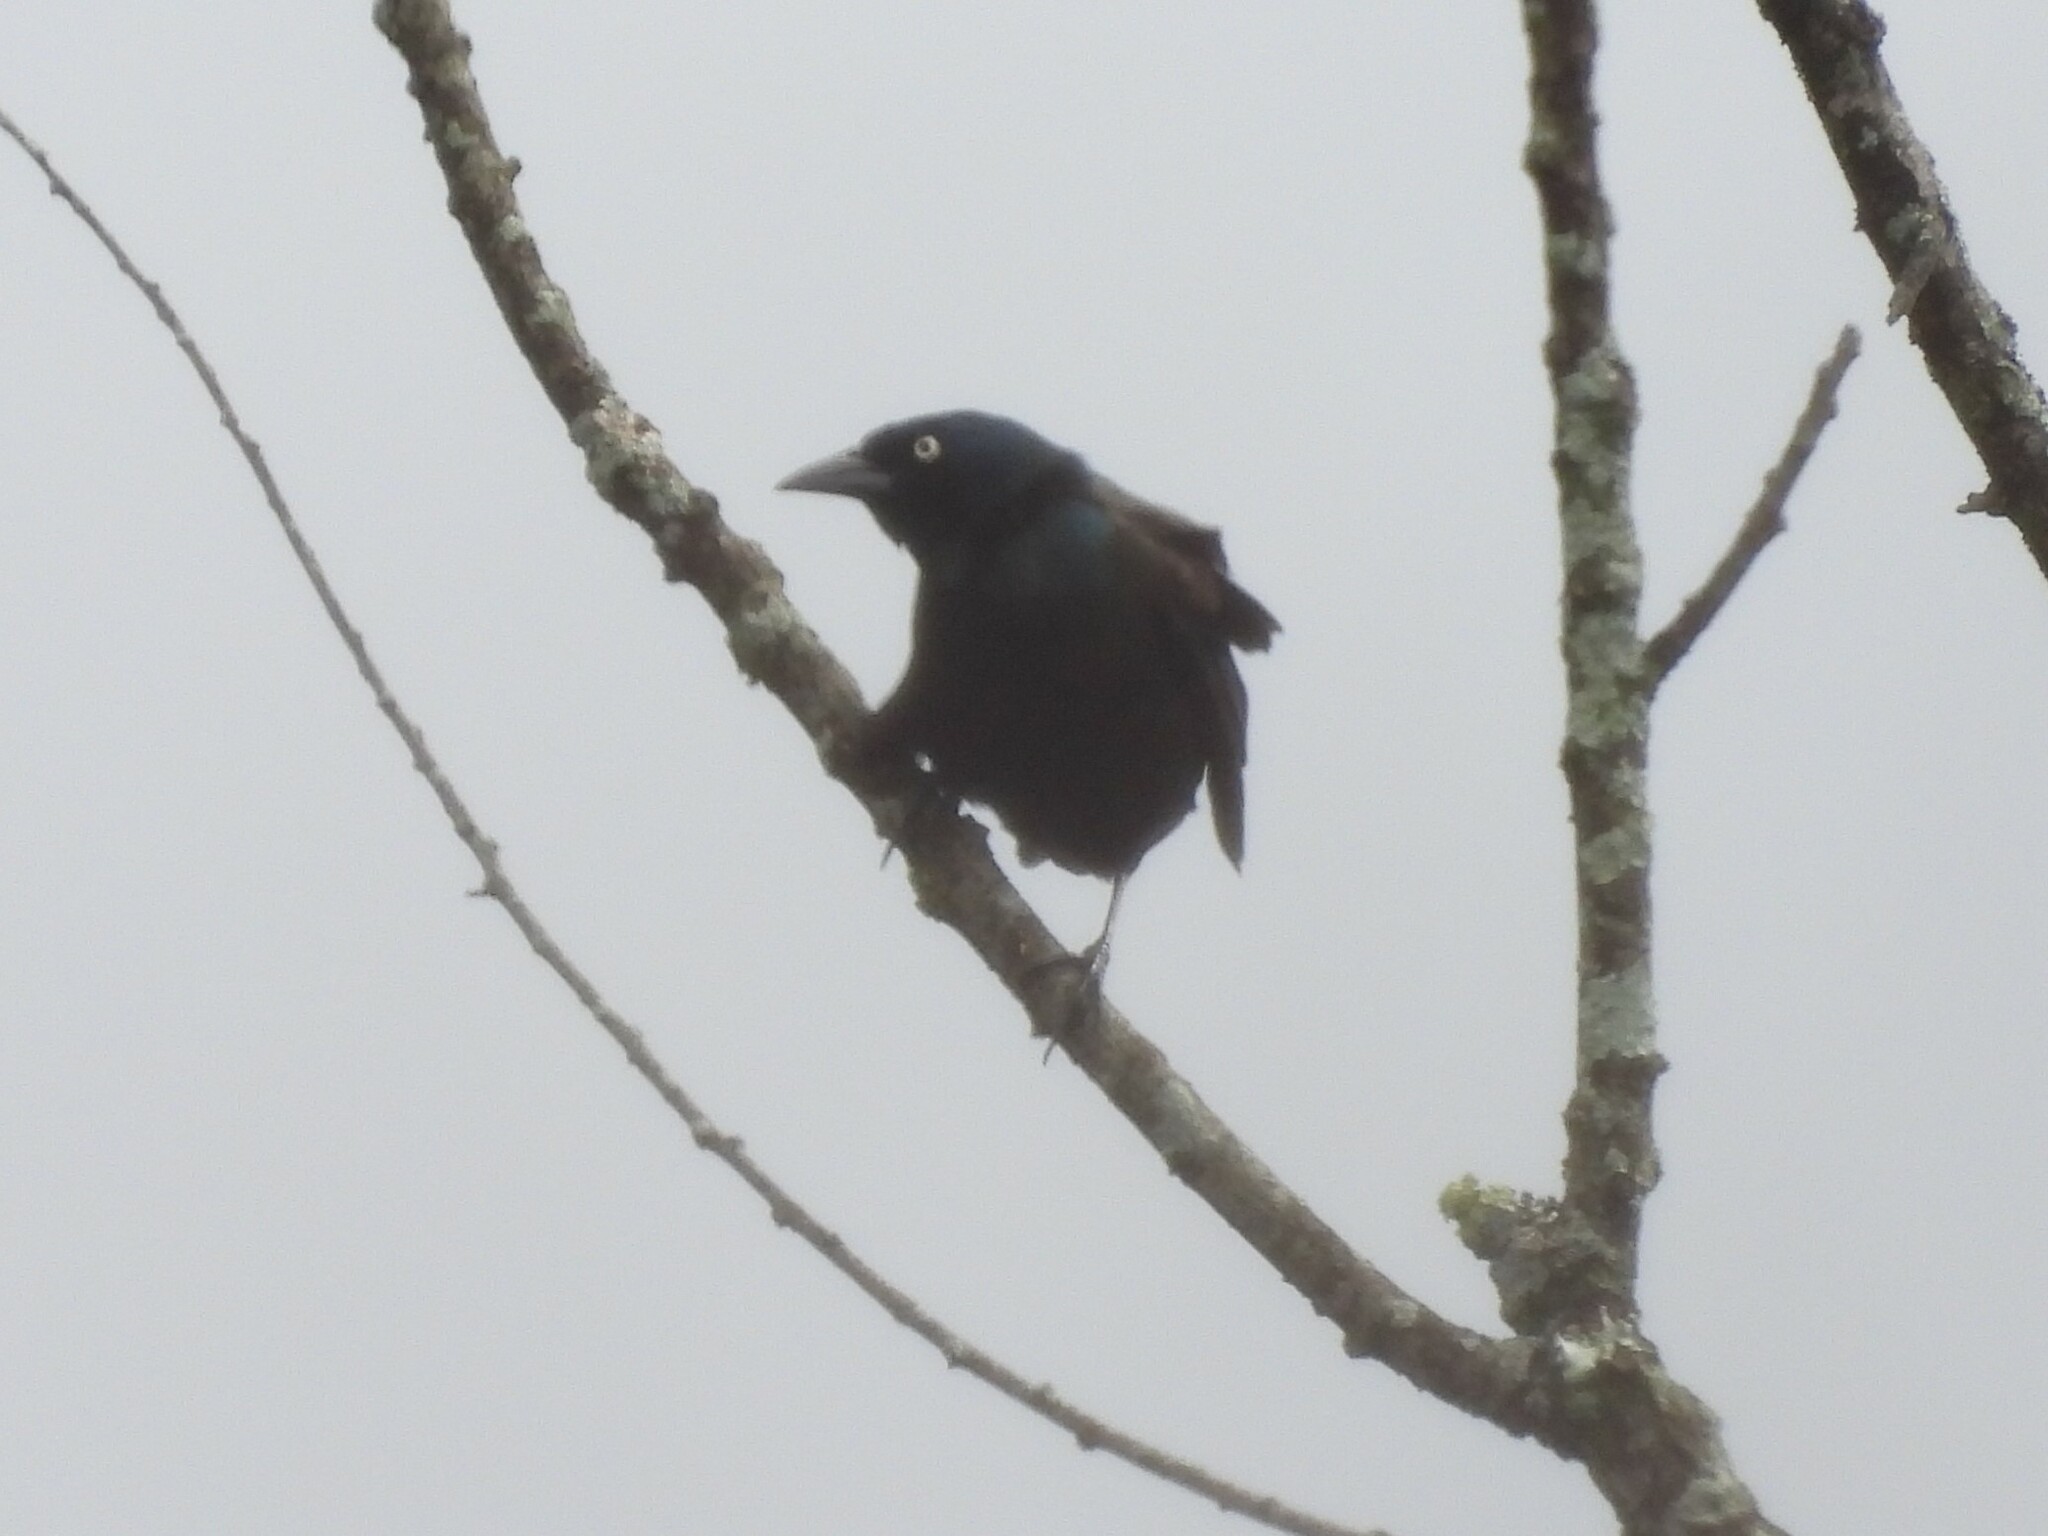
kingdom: Animalia
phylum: Chordata
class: Aves
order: Passeriformes
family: Icteridae
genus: Quiscalus
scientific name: Quiscalus quiscula
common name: Common grackle
